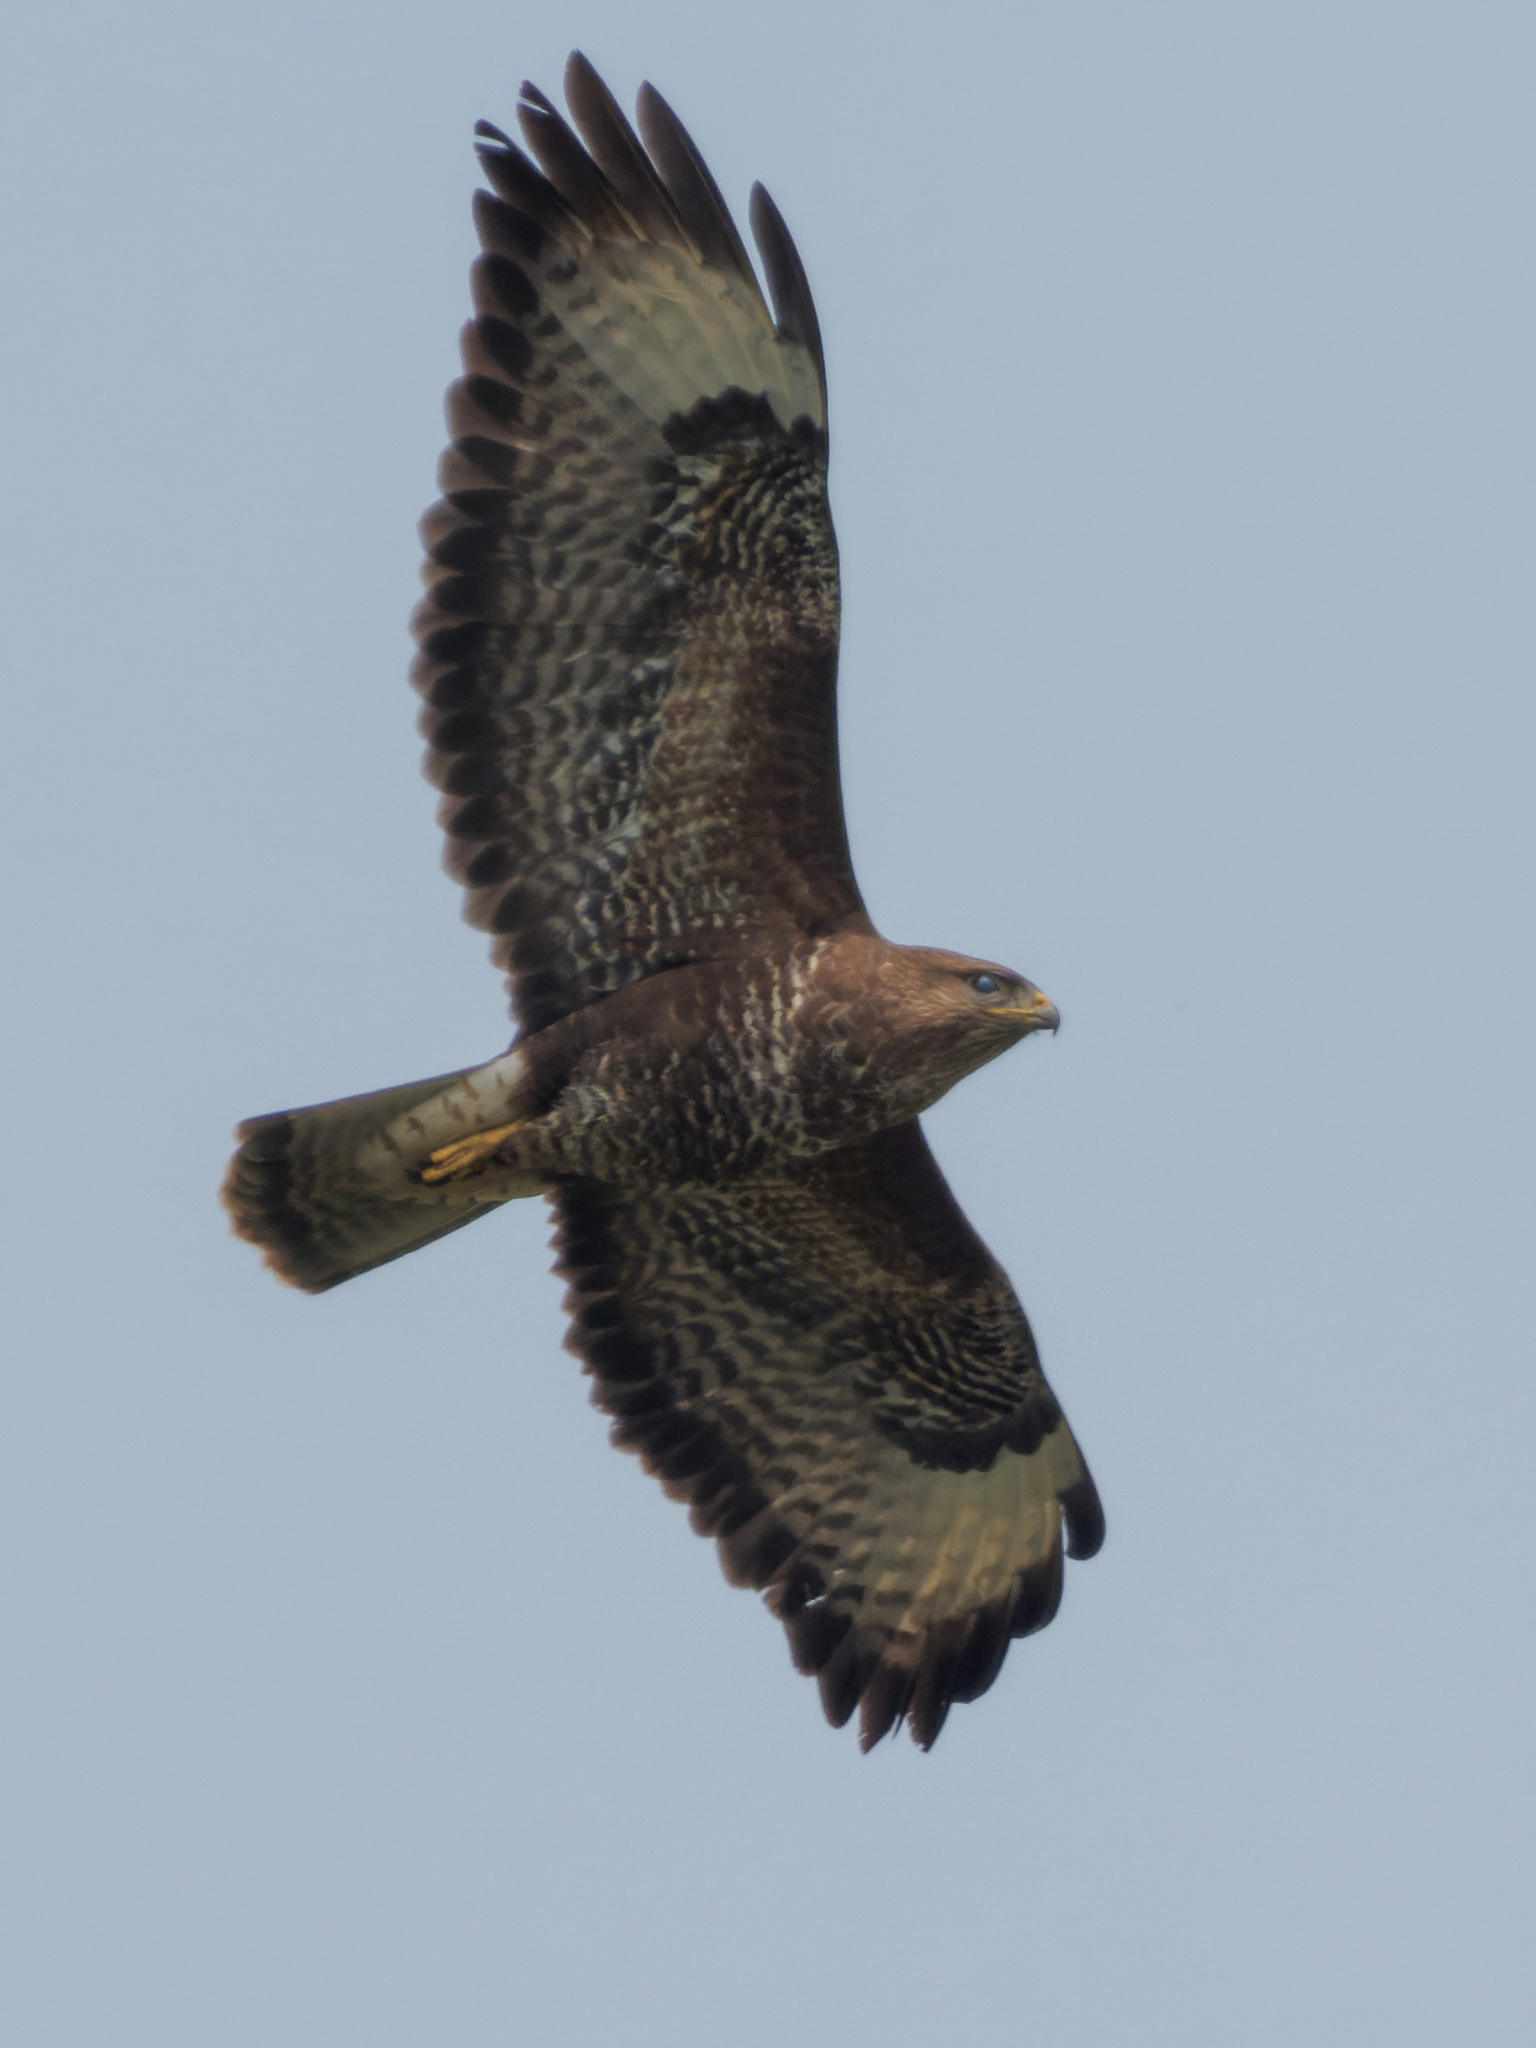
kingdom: Animalia
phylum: Chordata
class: Aves
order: Accipitriformes
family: Accipitridae
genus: Buteo
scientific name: Buteo buteo
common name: Common buzzard
